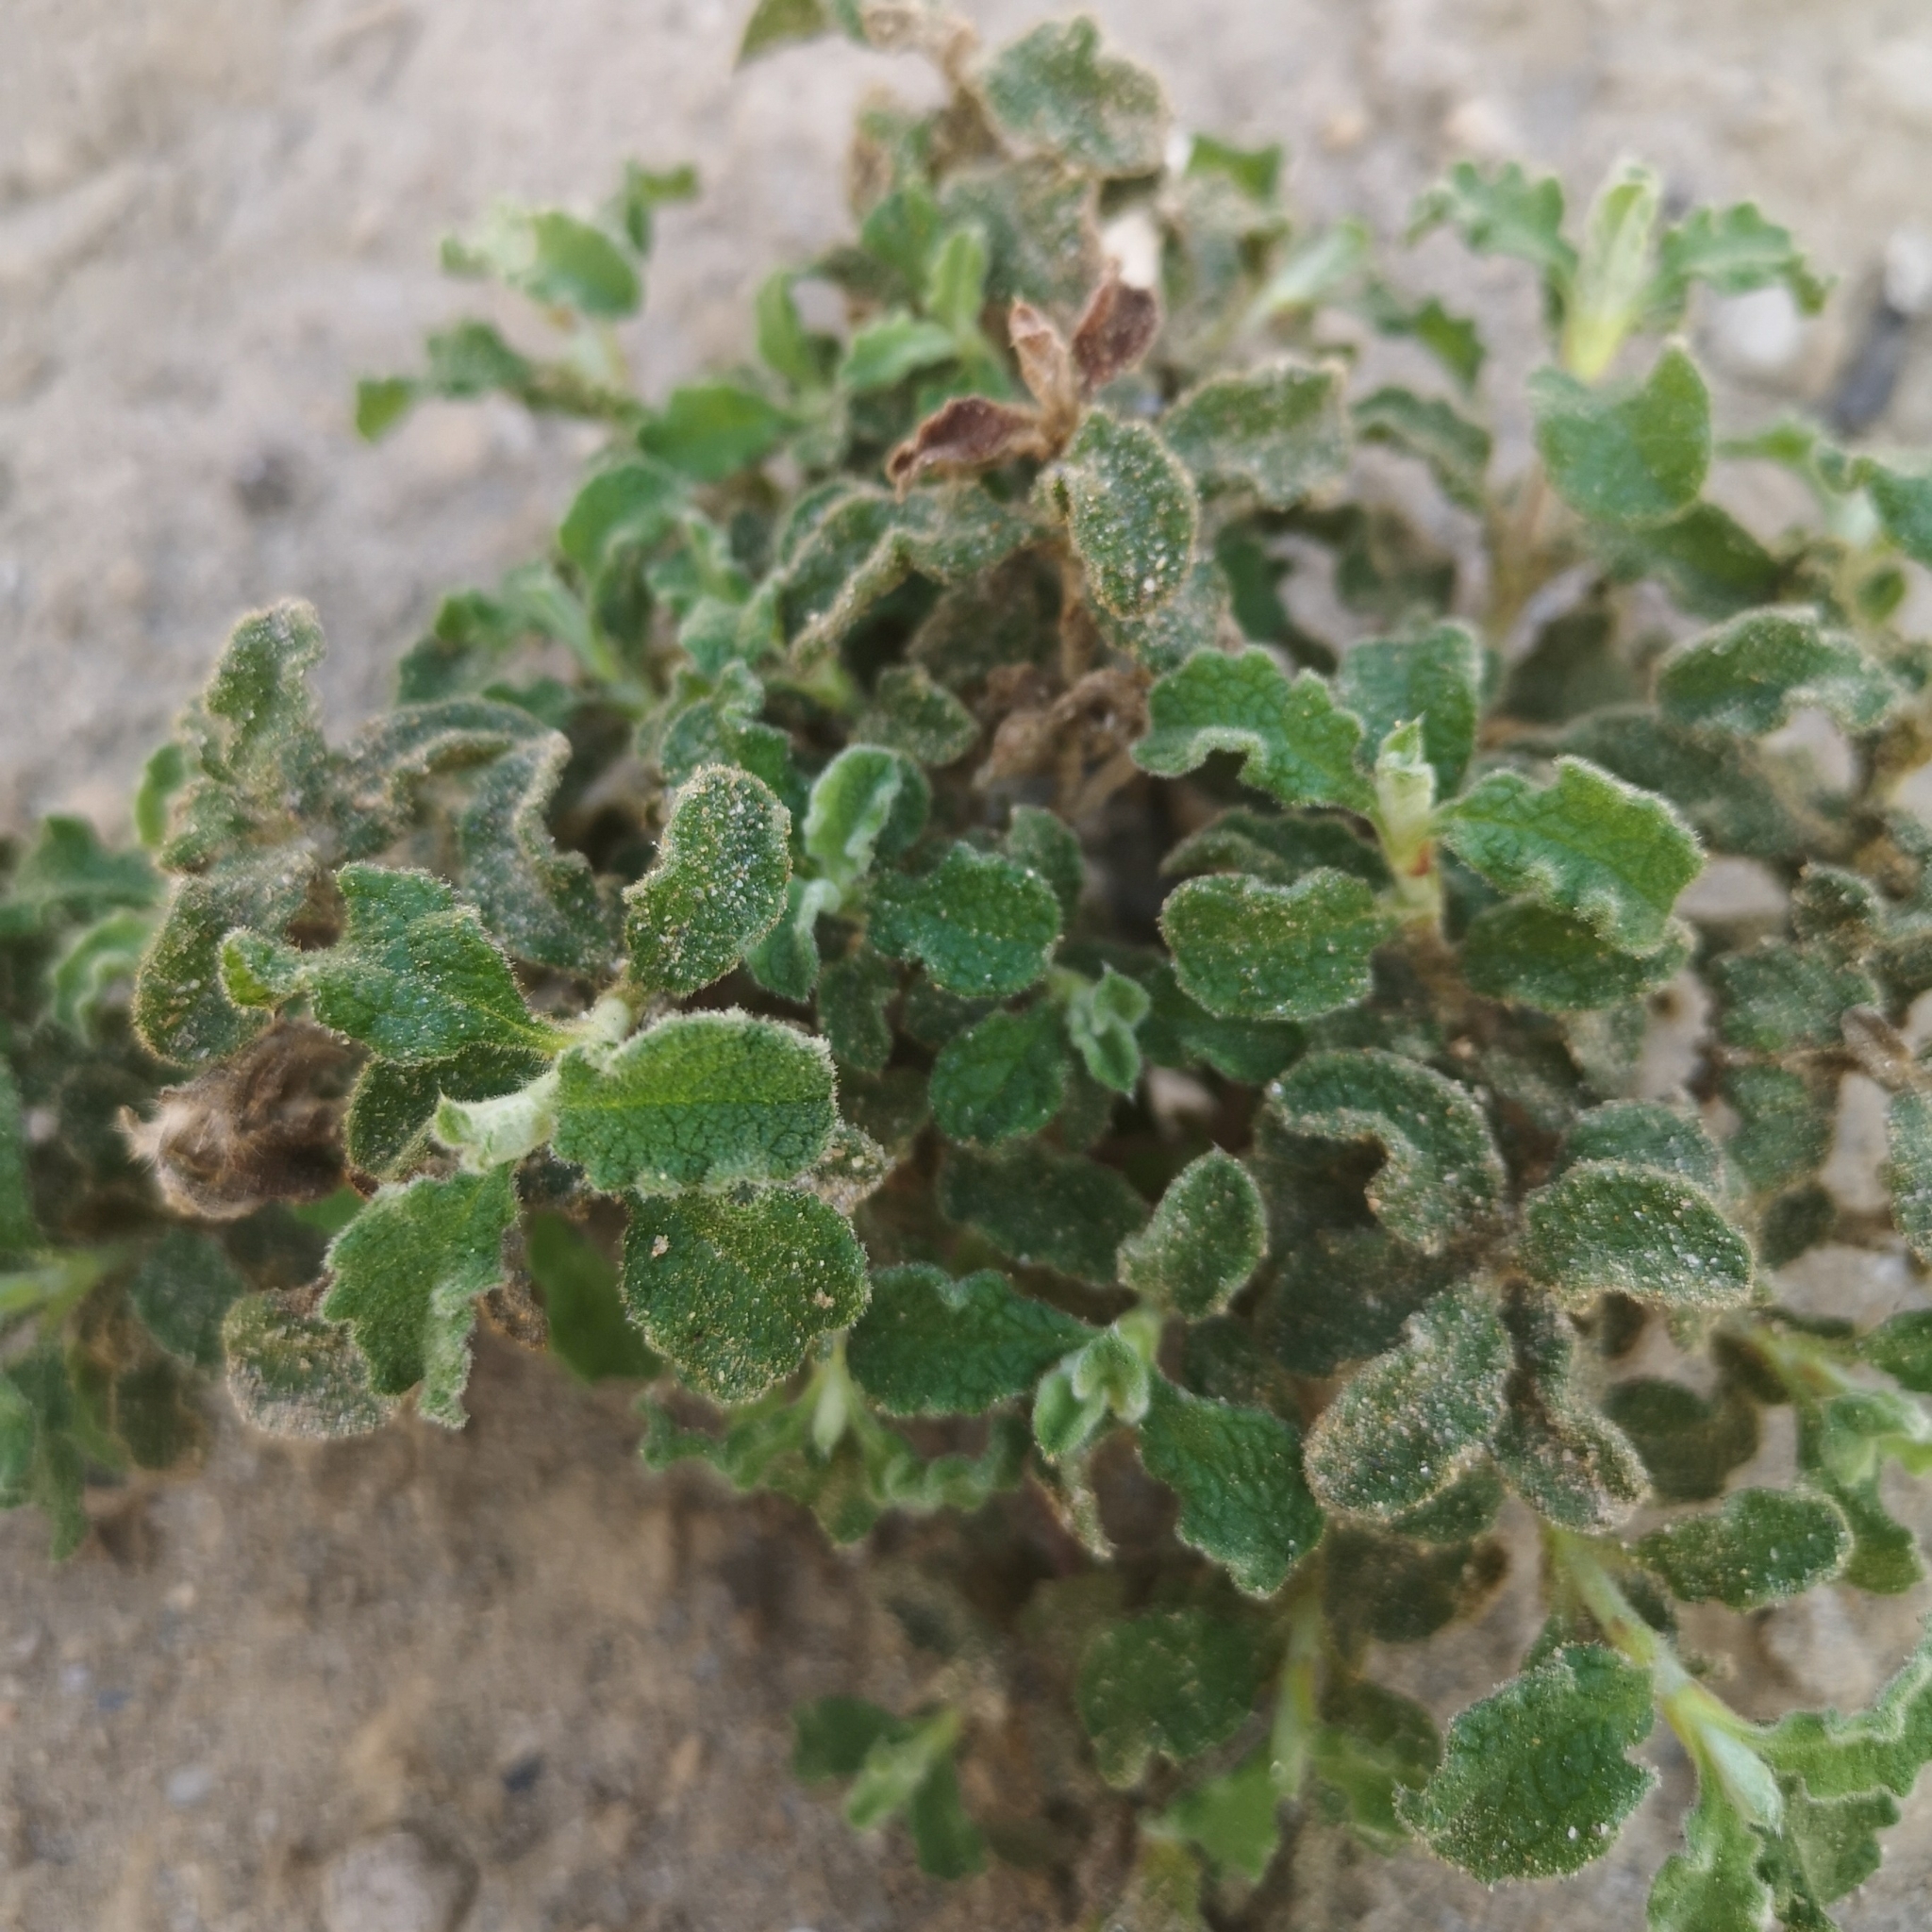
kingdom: Plantae
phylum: Tracheophyta
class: Magnoliopsida
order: Malvales
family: Cistaceae
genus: Cistus
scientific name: Cistus creticus
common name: Cretan rockrose
